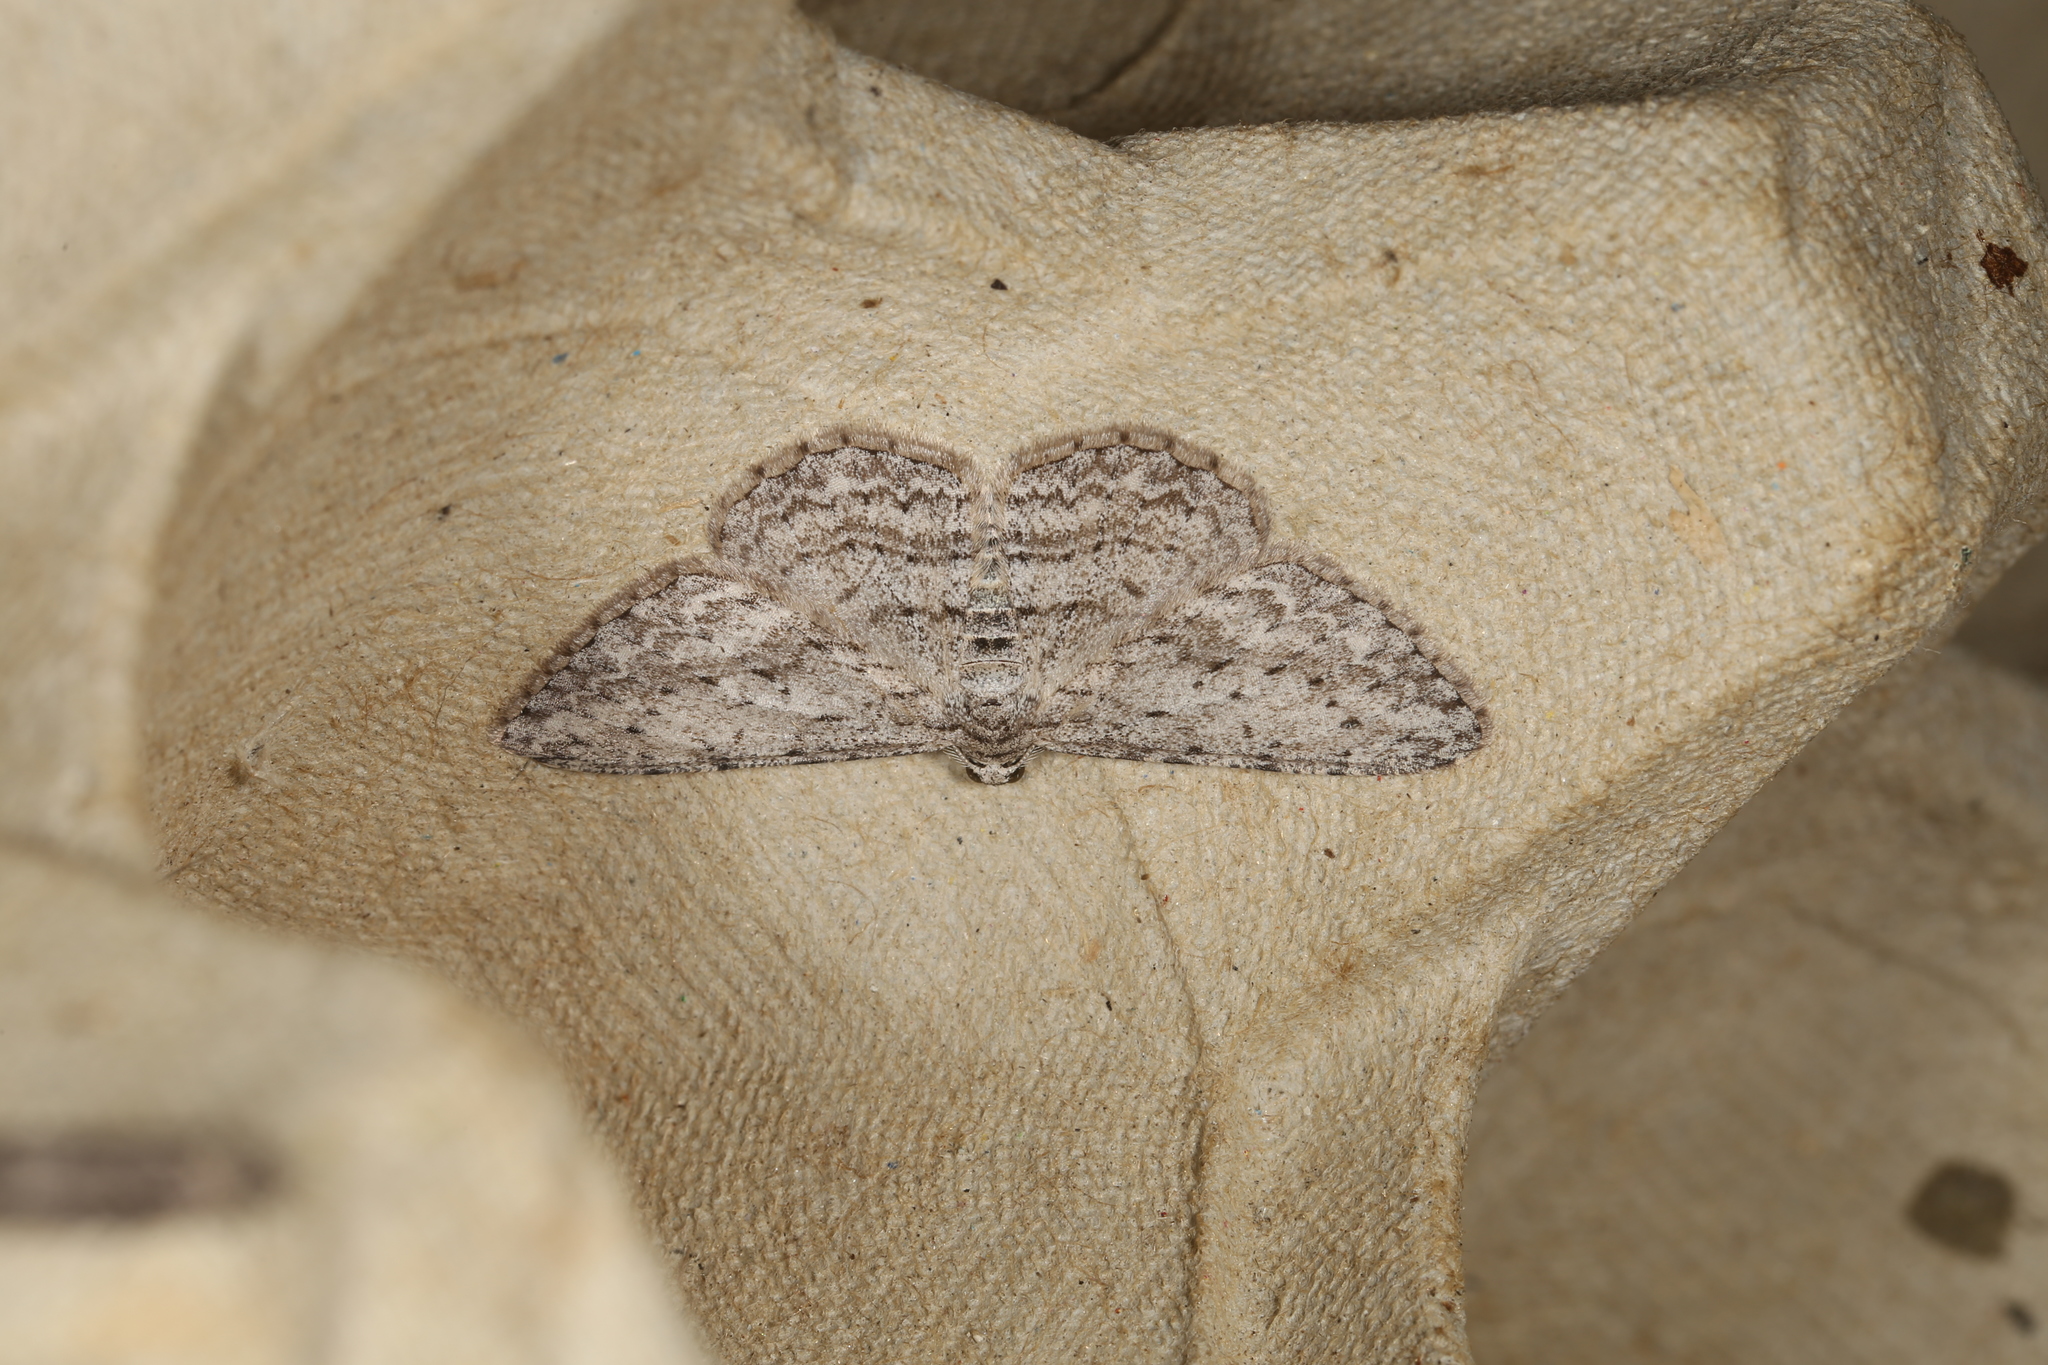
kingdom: Animalia
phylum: Arthropoda
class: Insecta
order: Lepidoptera
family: Geometridae
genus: Phelotis
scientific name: Phelotis cognata
